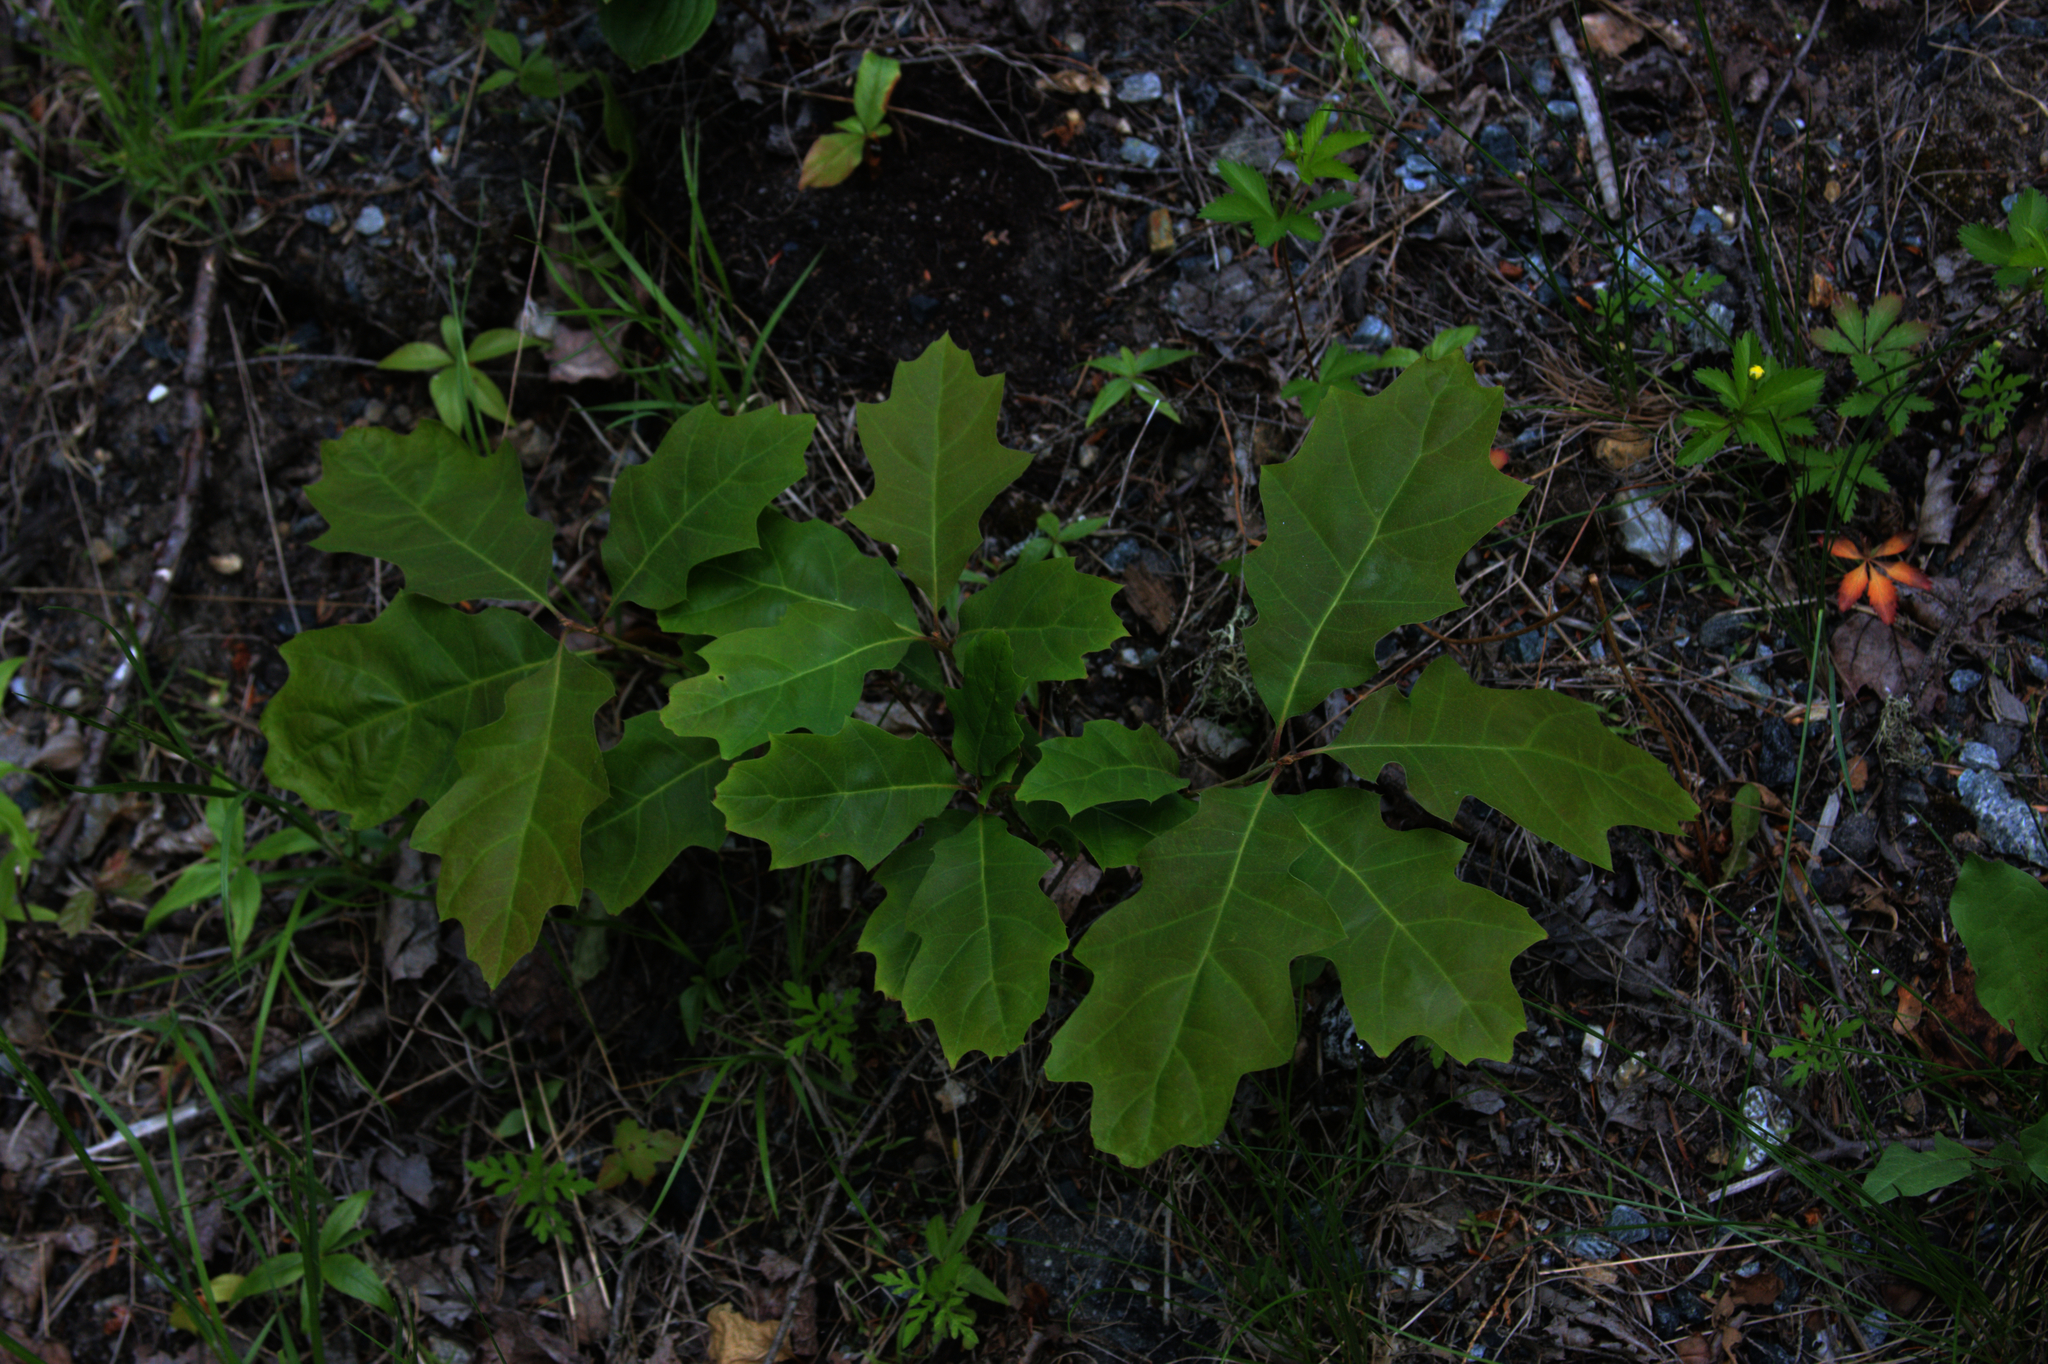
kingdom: Plantae
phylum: Tracheophyta
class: Magnoliopsida
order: Fagales
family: Fagaceae
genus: Quercus
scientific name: Quercus rubra
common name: Red oak
